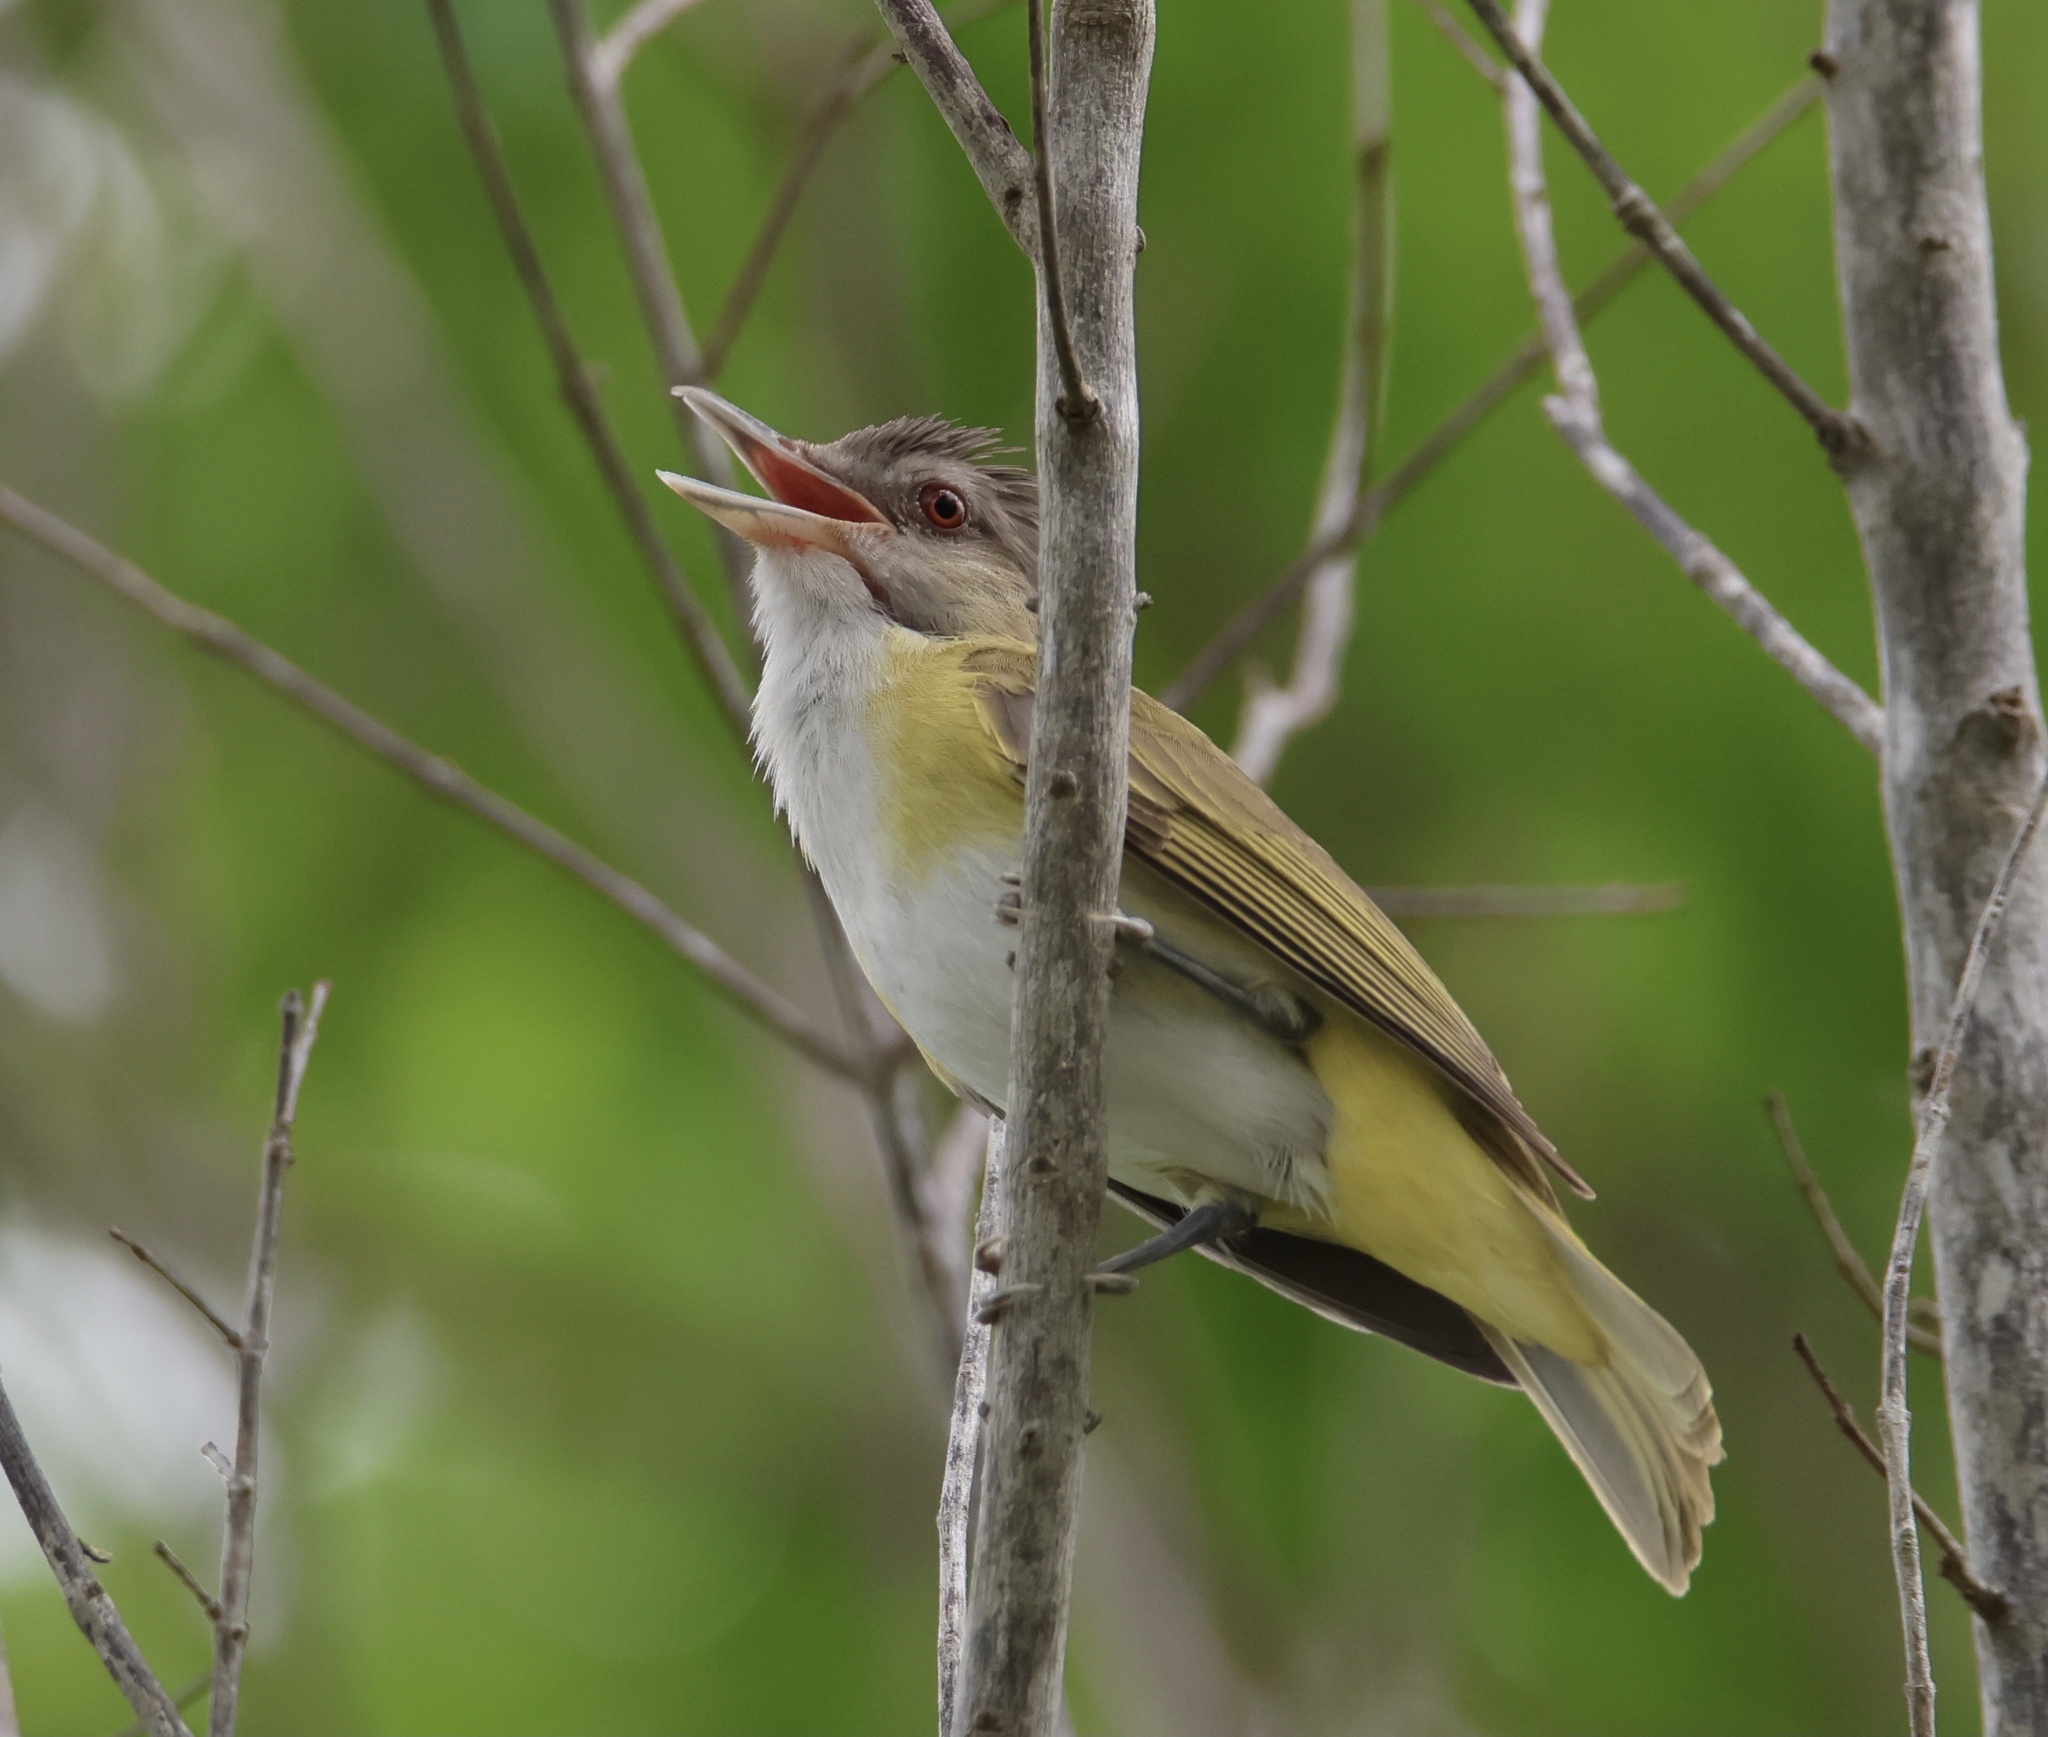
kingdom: Animalia
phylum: Chordata
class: Aves
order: Passeriformes
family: Vireonidae
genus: Vireo
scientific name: Vireo flavoviridis
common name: Yellow-green vireo
